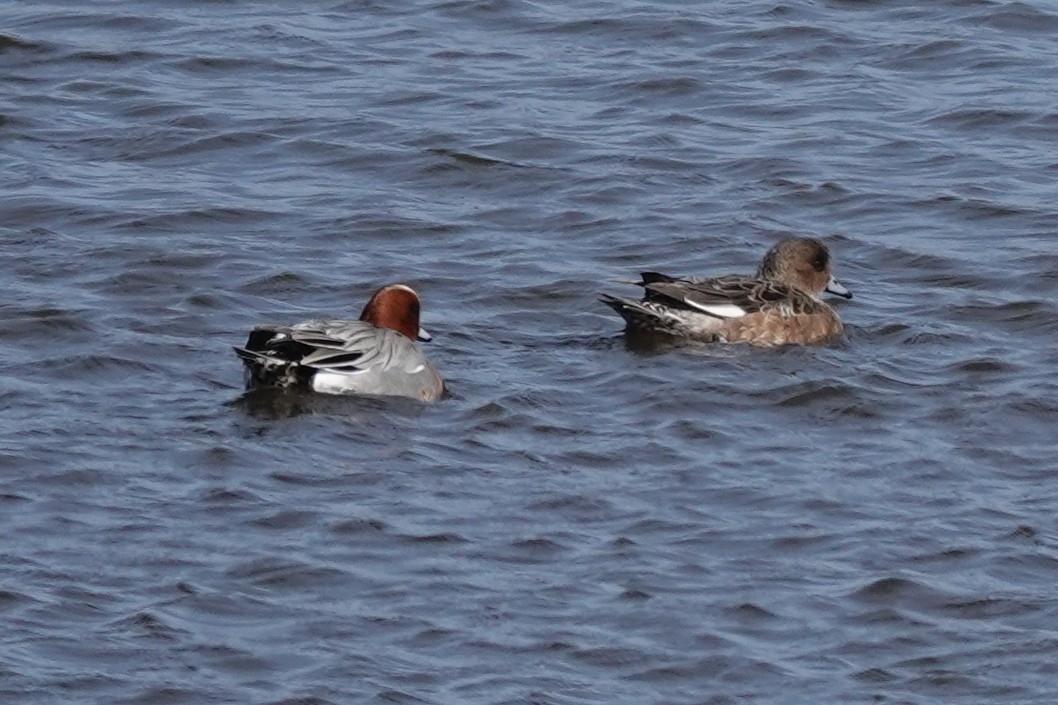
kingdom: Animalia
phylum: Chordata
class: Aves
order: Anseriformes
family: Anatidae
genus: Mareca
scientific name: Mareca penelope
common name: Eurasian wigeon
